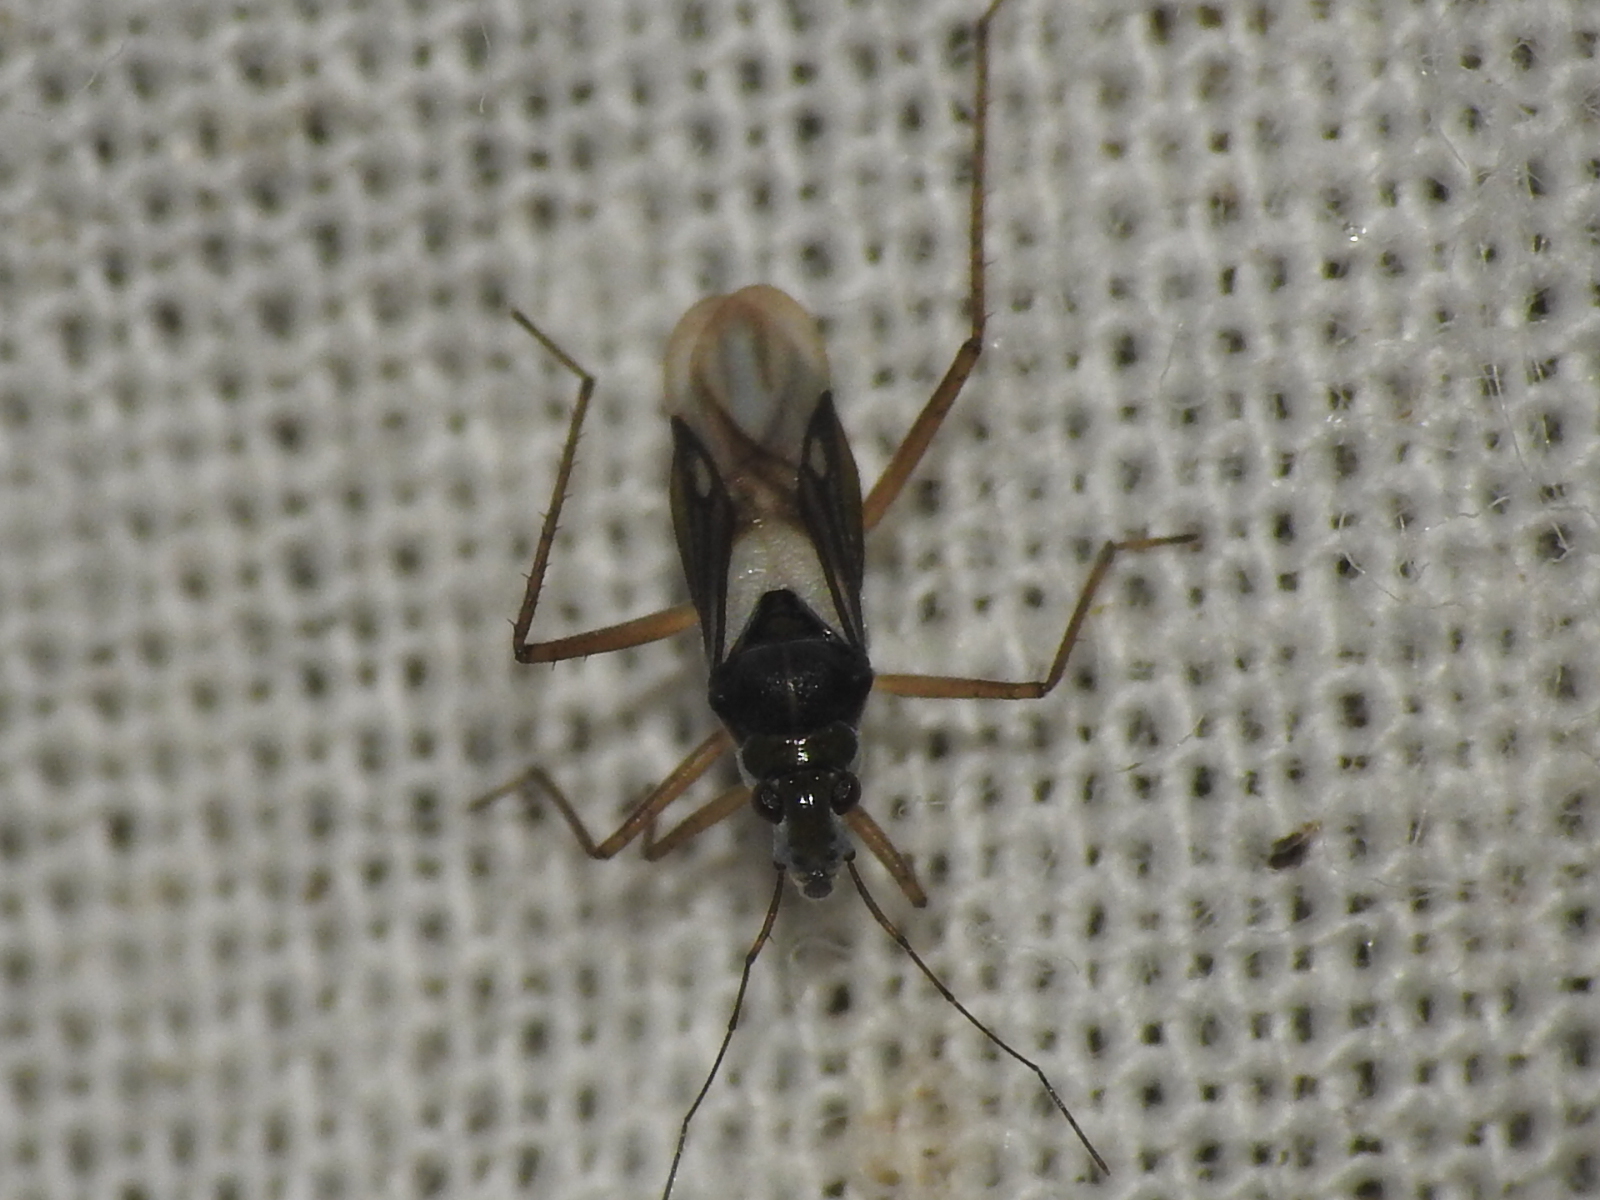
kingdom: Animalia
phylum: Arthropoda
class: Insecta
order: Hemiptera
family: Mesoveliidae
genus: Mesovelia
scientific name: Mesovelia mulsanti
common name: Water treaders
